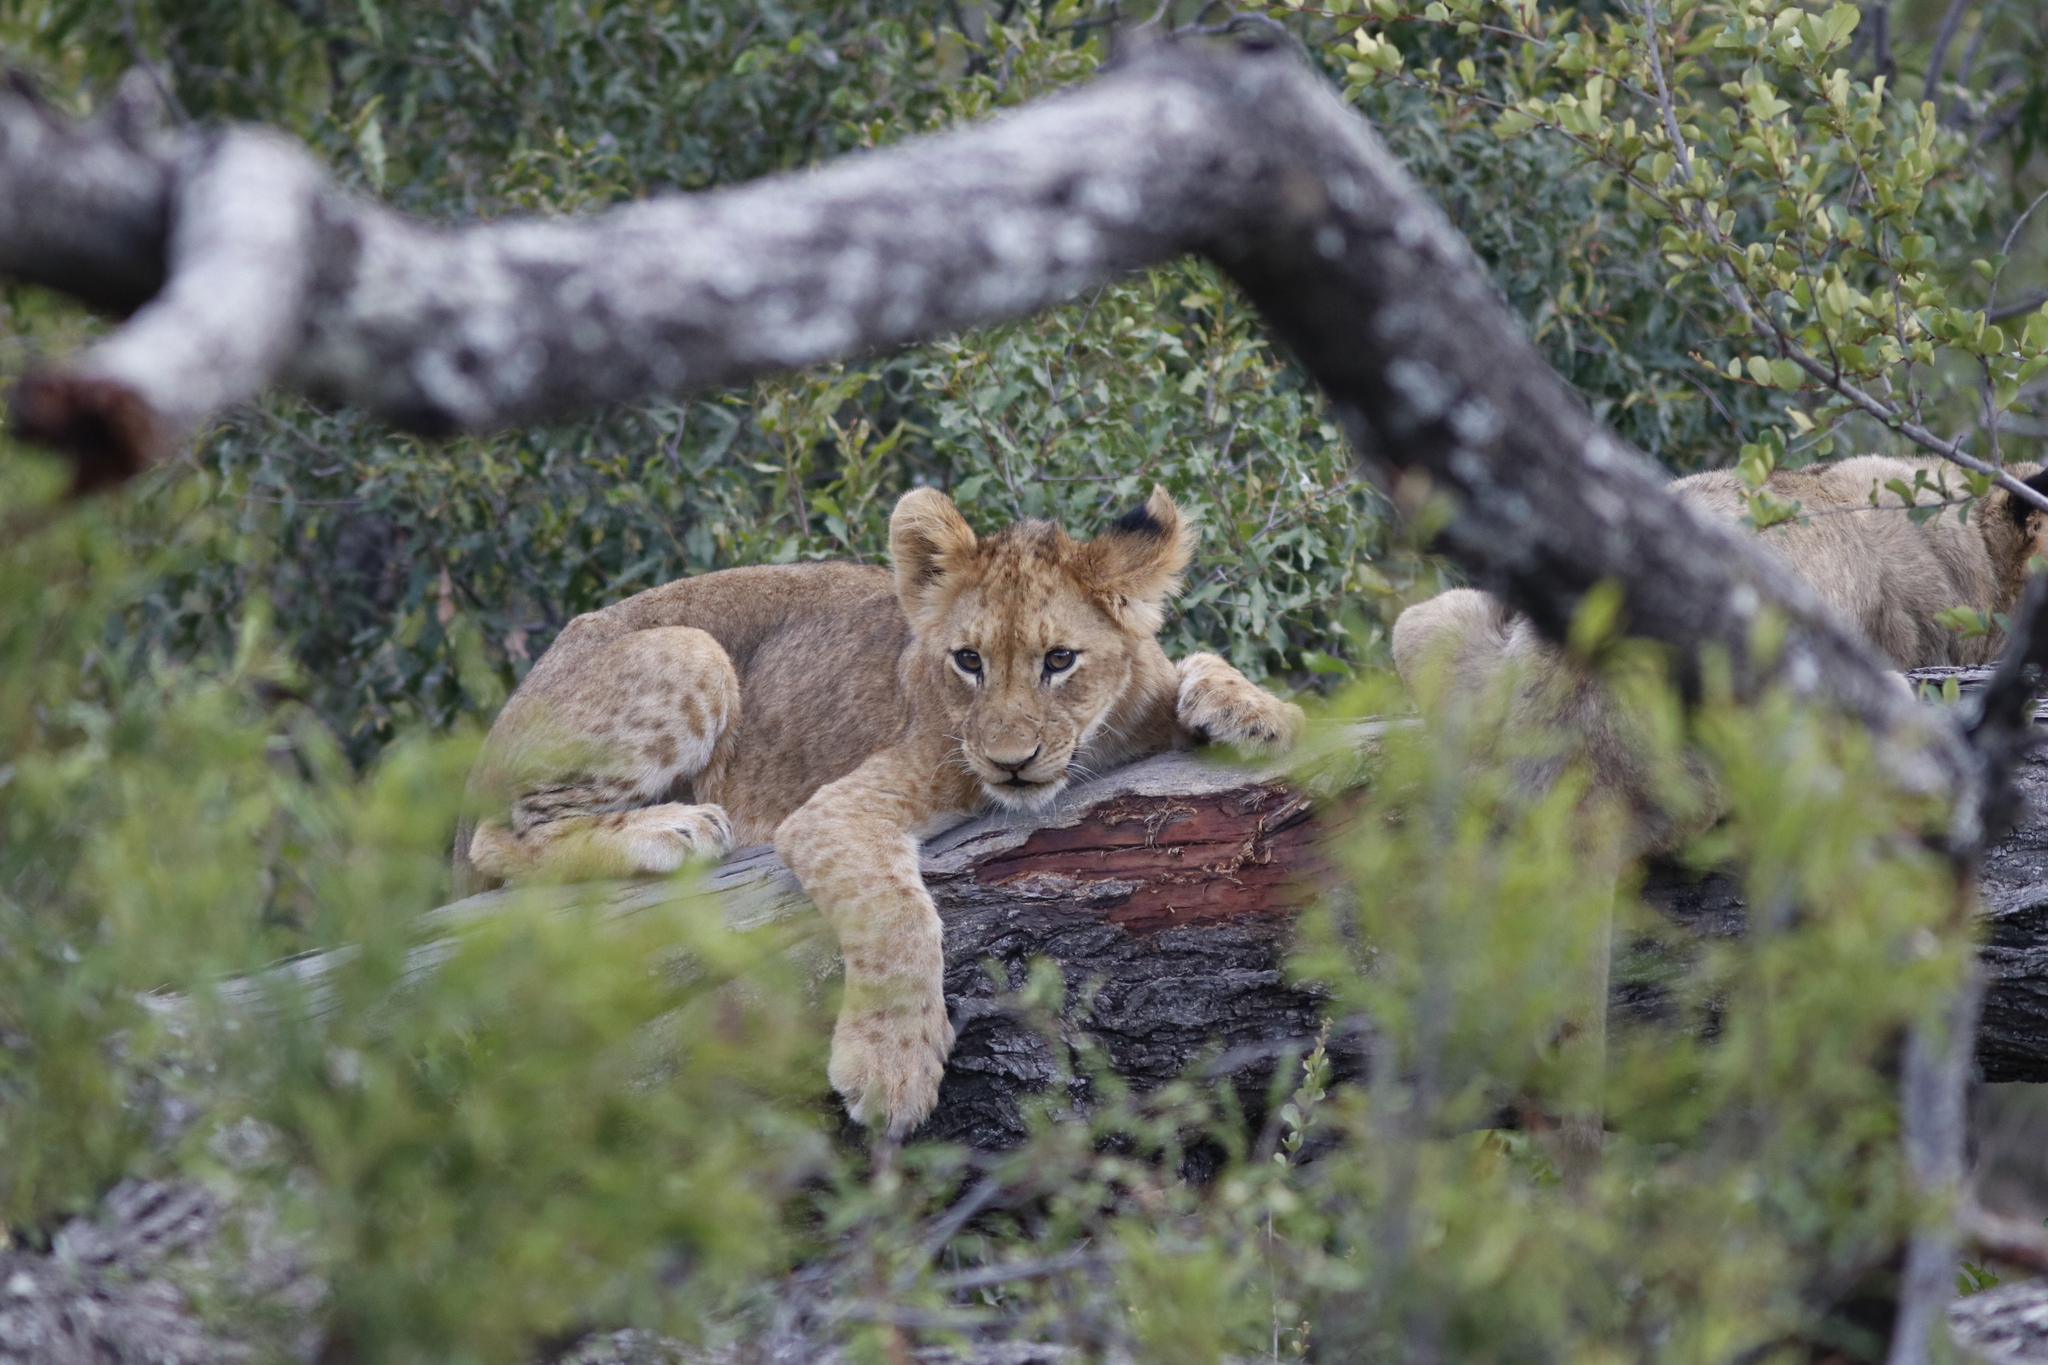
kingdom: Animalia
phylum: Chordata
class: Mammalia
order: Carnivora
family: Felidae
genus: Panthera
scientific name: Panthera leo
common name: Lion
